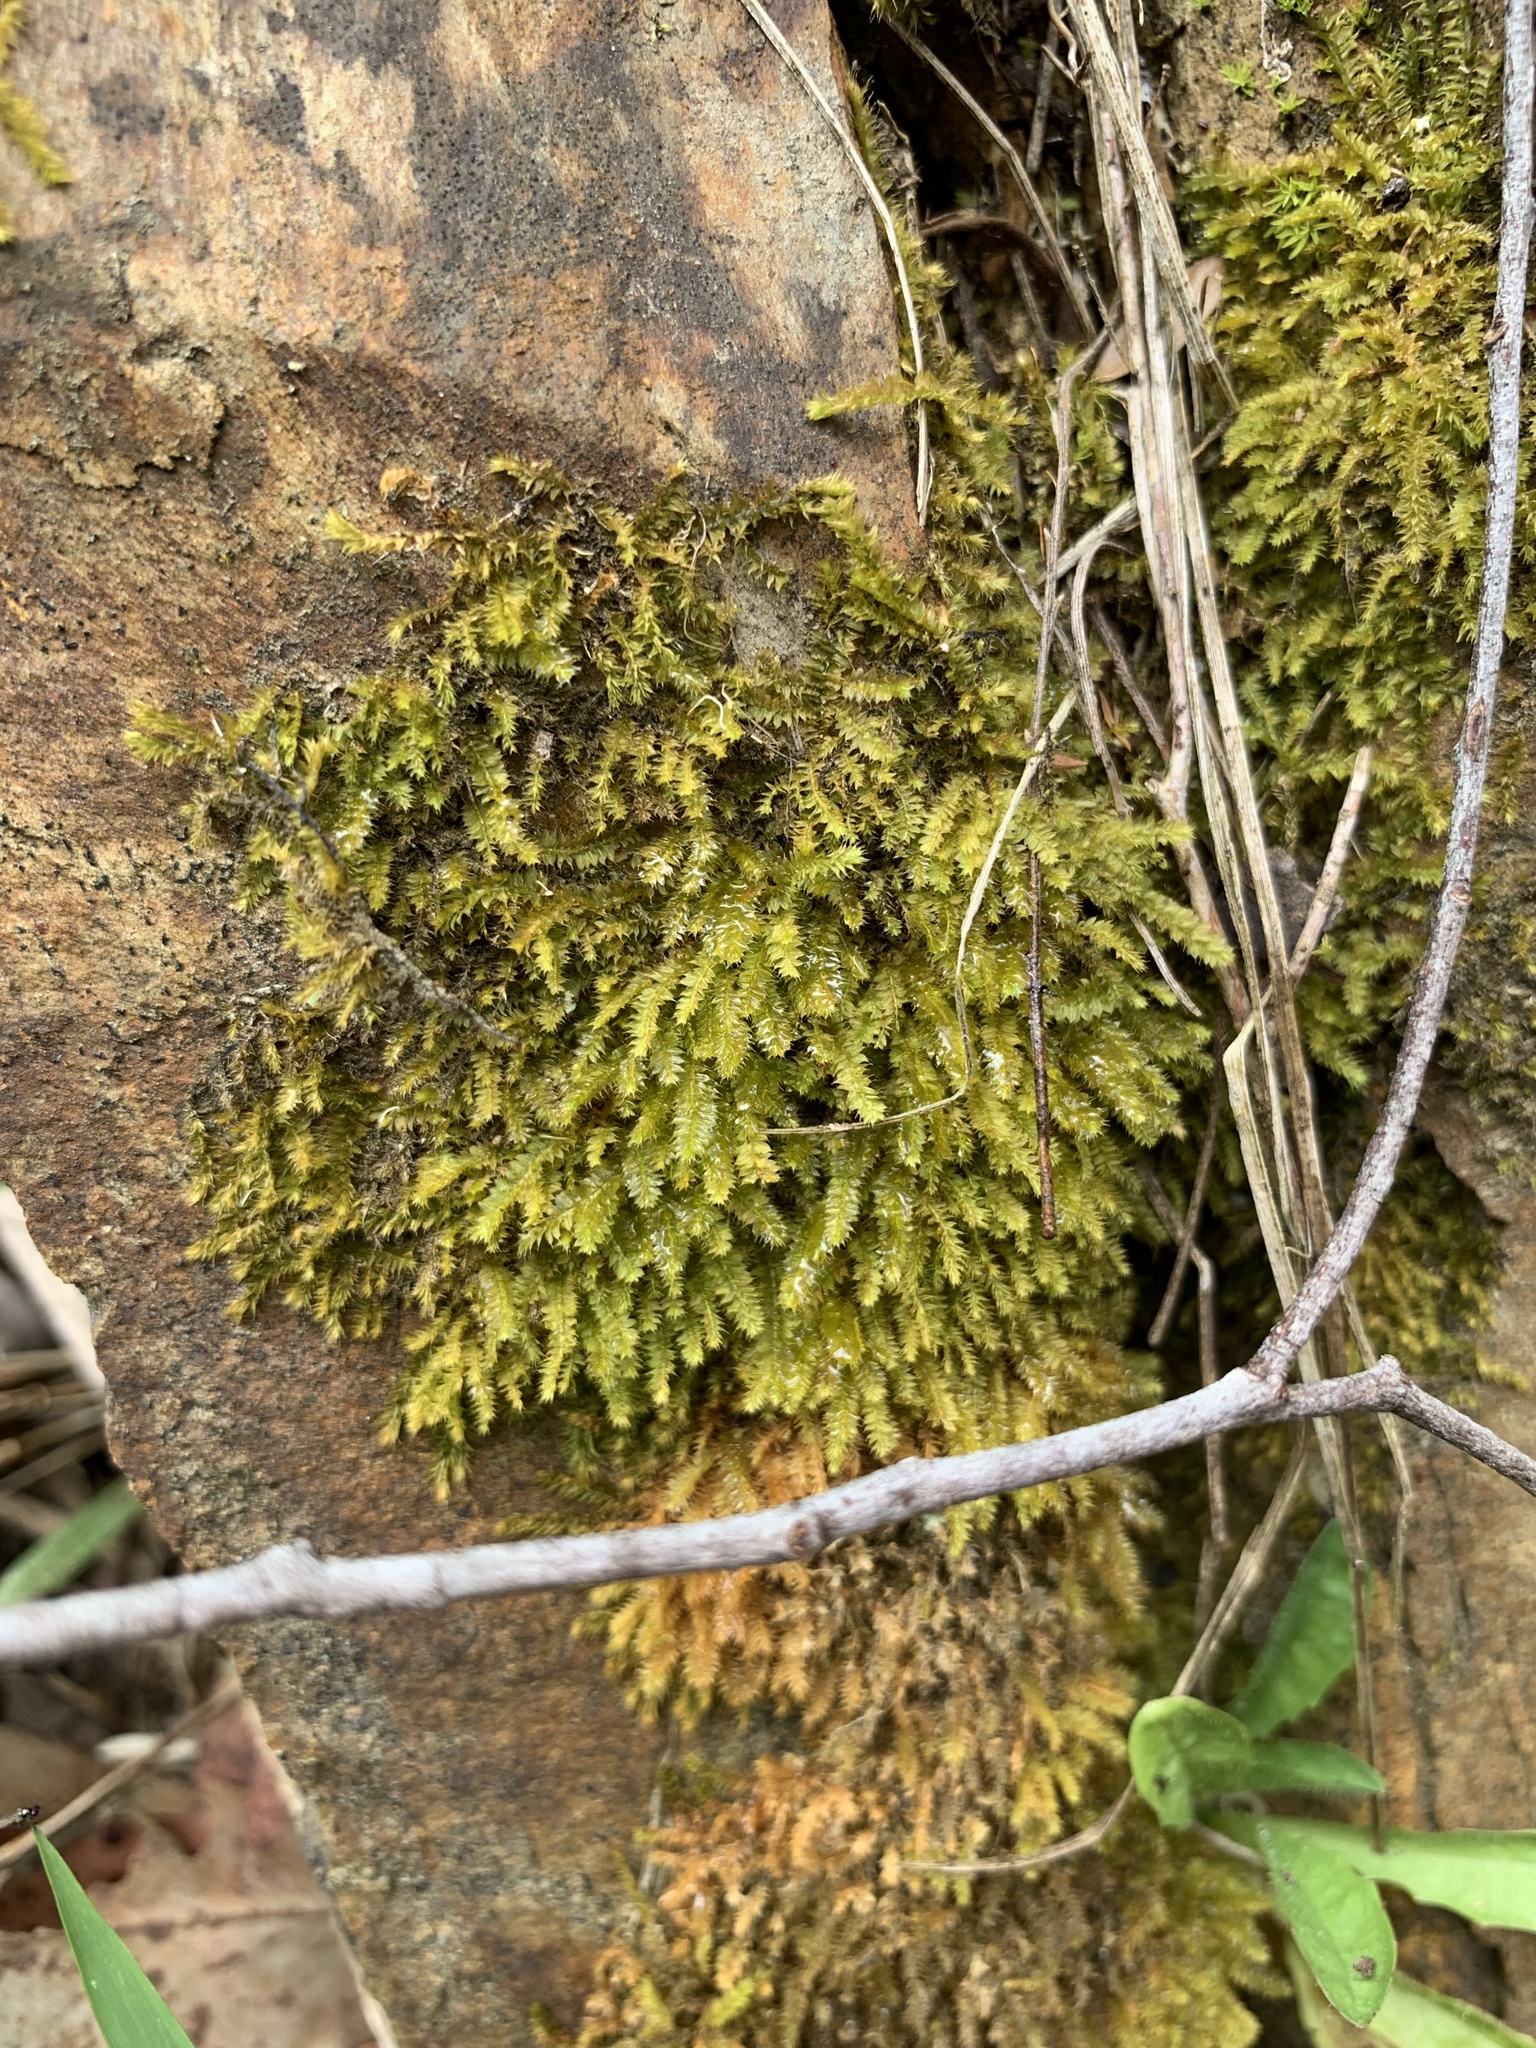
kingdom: Plantae
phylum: Bryophyta
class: Bryopsida
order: Hypnodendrales
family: Racopilaceae
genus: Racopilum
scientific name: Racopilum cuspidigerum
